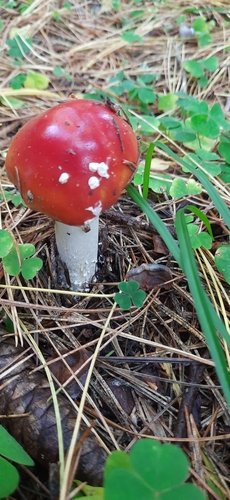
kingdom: Fungi
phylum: Basidiomycota
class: Agaricomycetes
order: Agaricales
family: Amanitaceae
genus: Amanita
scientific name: Amanita muscaria
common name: Fly agaric
